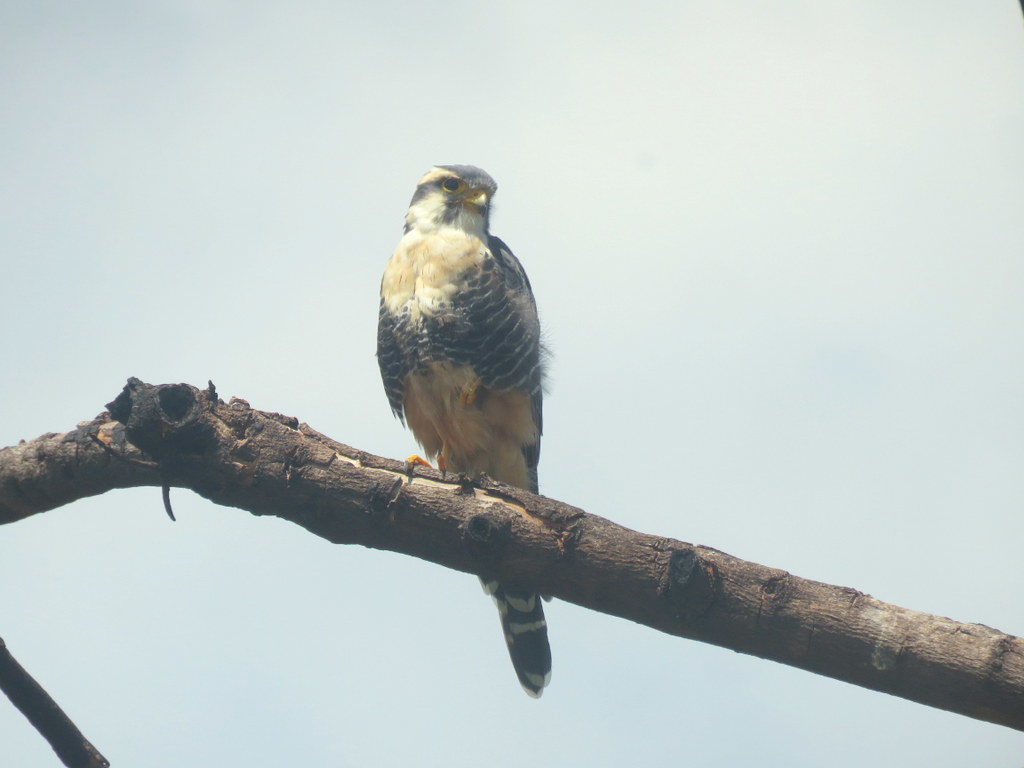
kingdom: Animalia
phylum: Chordata
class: Aves
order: Falconiformes
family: Falconidae
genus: Falco
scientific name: Falco femoralis
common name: Aplomado falcon
